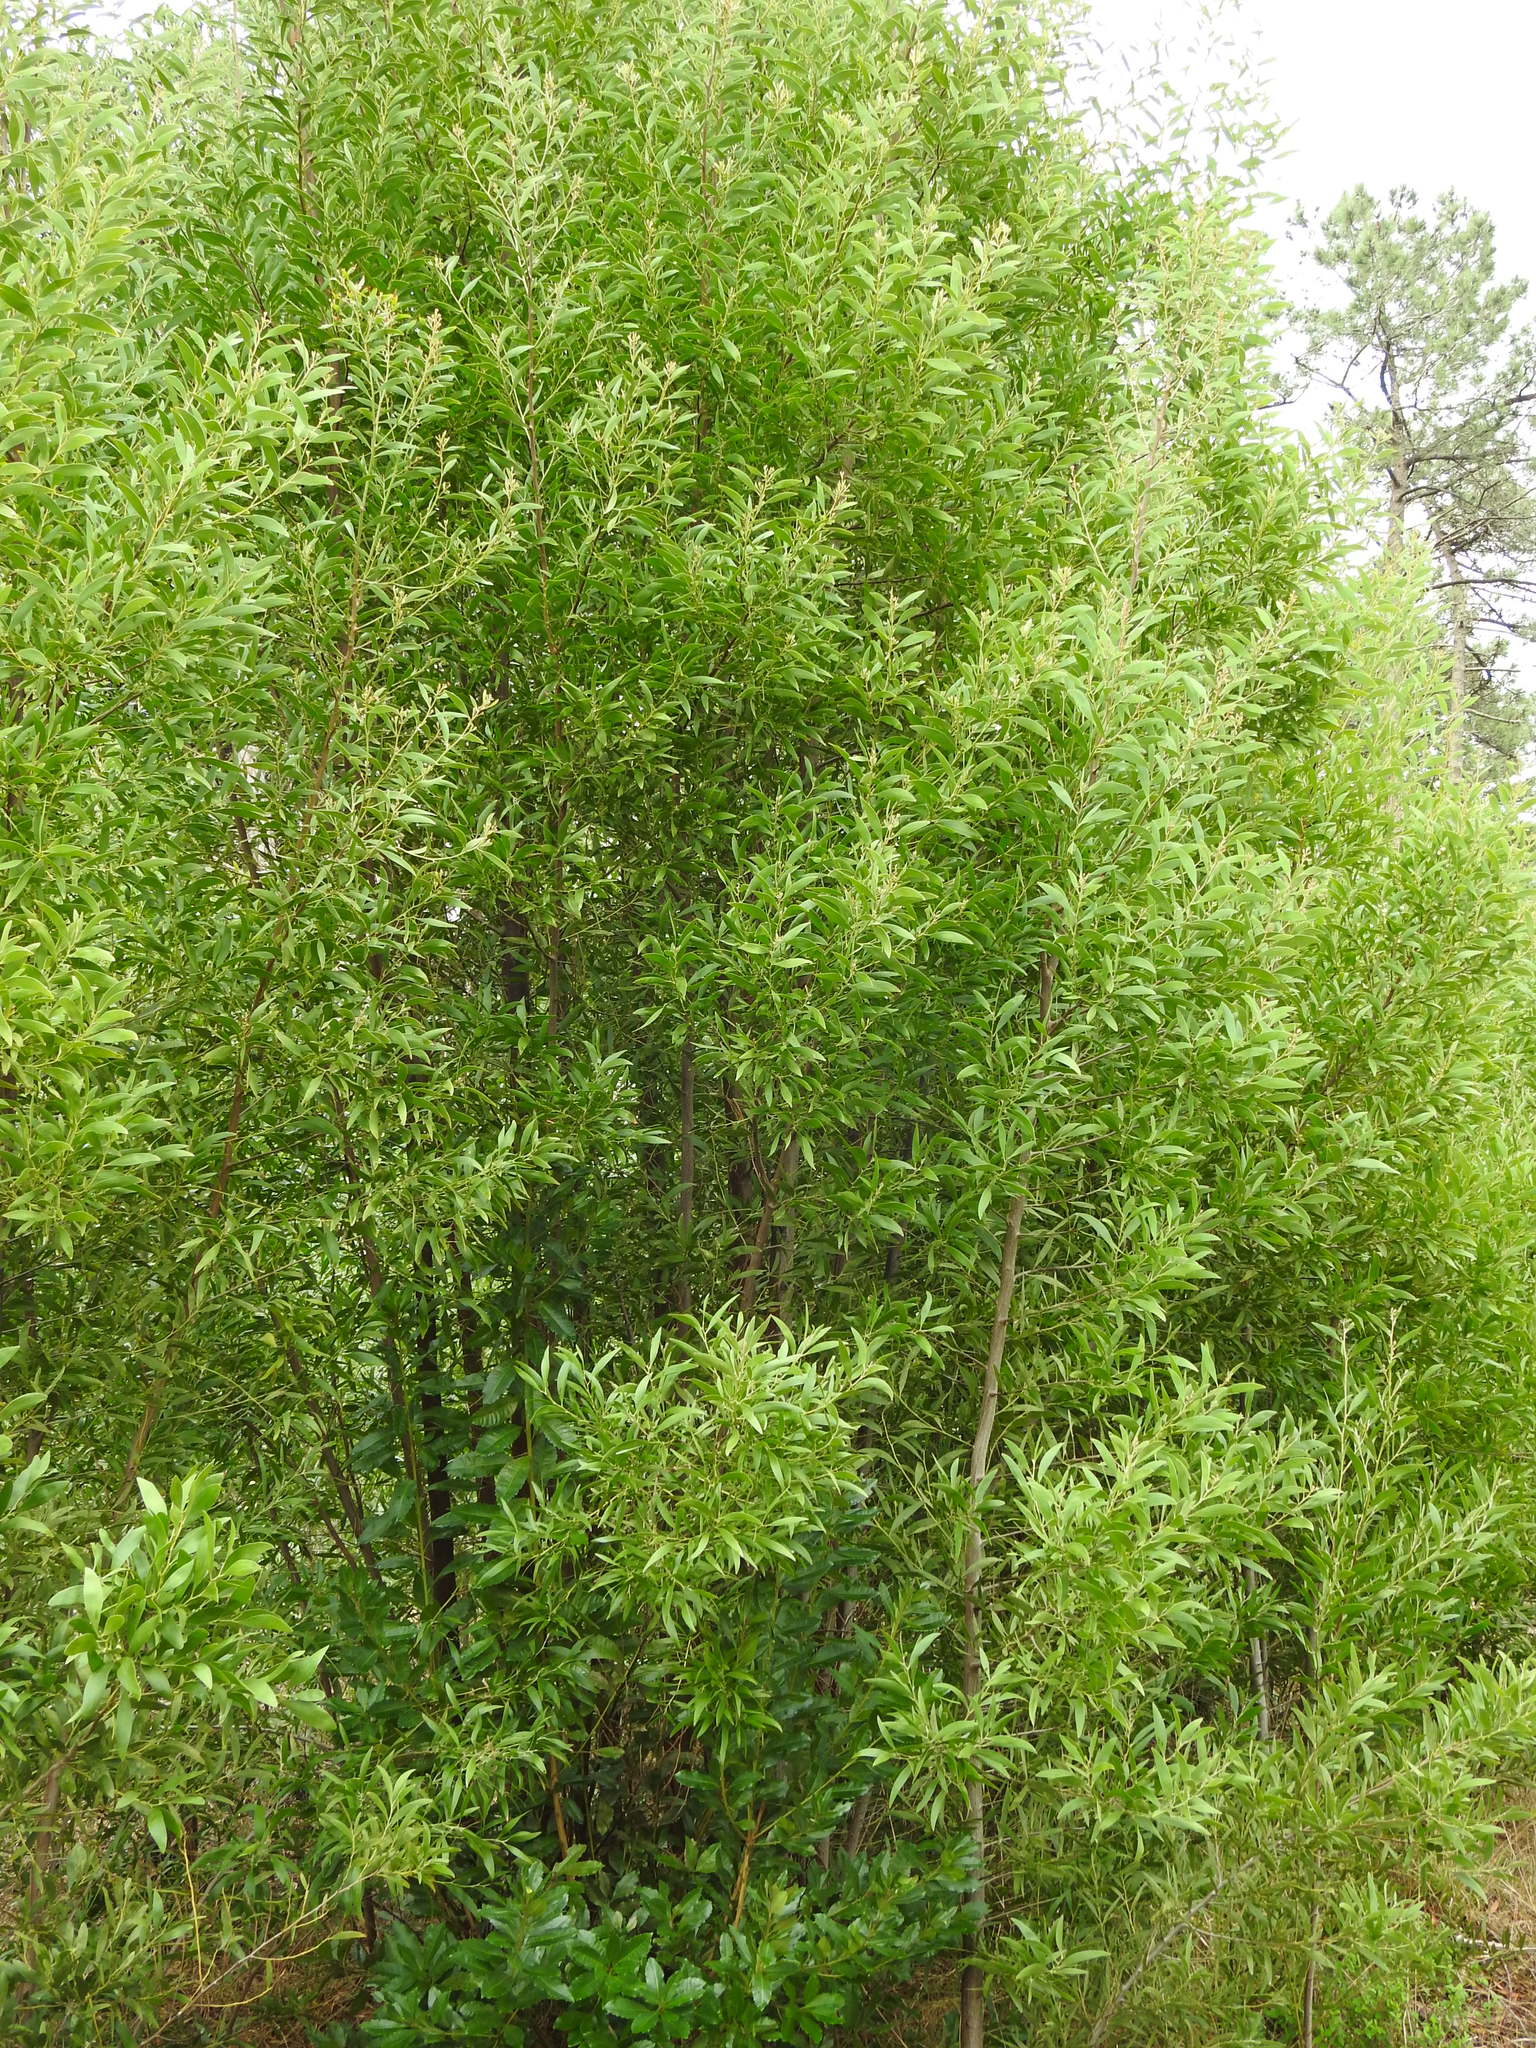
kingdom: Plantae
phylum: Tracheophyta
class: Magnoliopsida
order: Fabales
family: Fabaceae
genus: Acacia
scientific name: Acacia melanoxylon
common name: Blackwood
